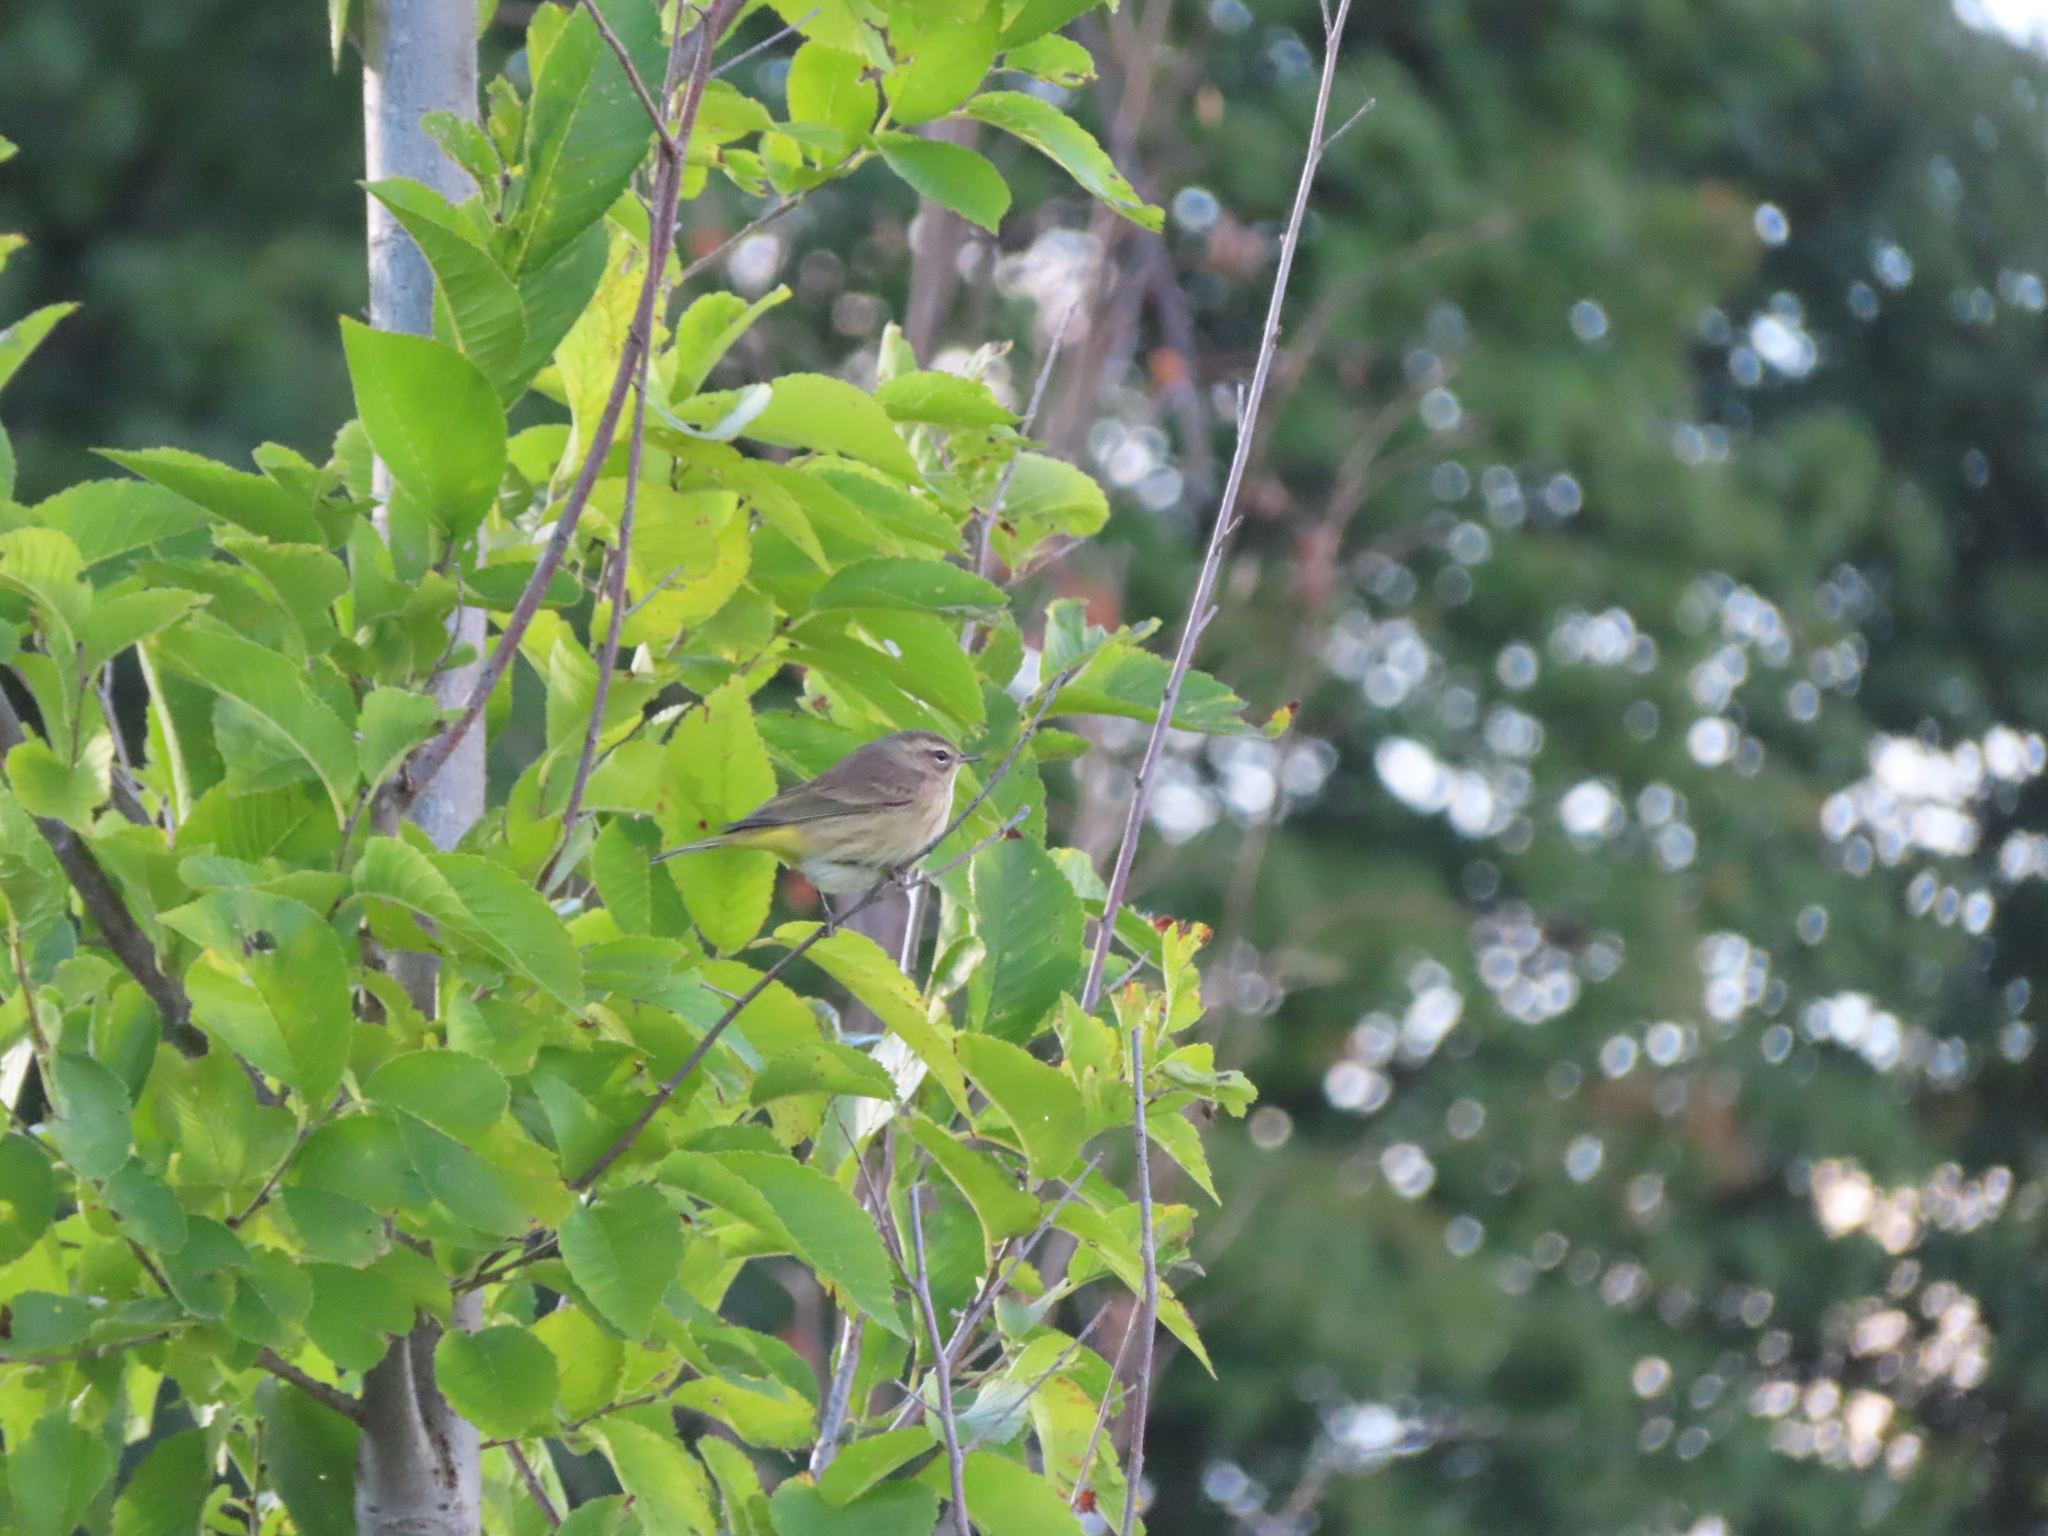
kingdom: Animalia
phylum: Chordata
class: Aves
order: Passeriformes
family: Parulidae
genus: Setophaga
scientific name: Setophaga palmarum
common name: Palm warbler
